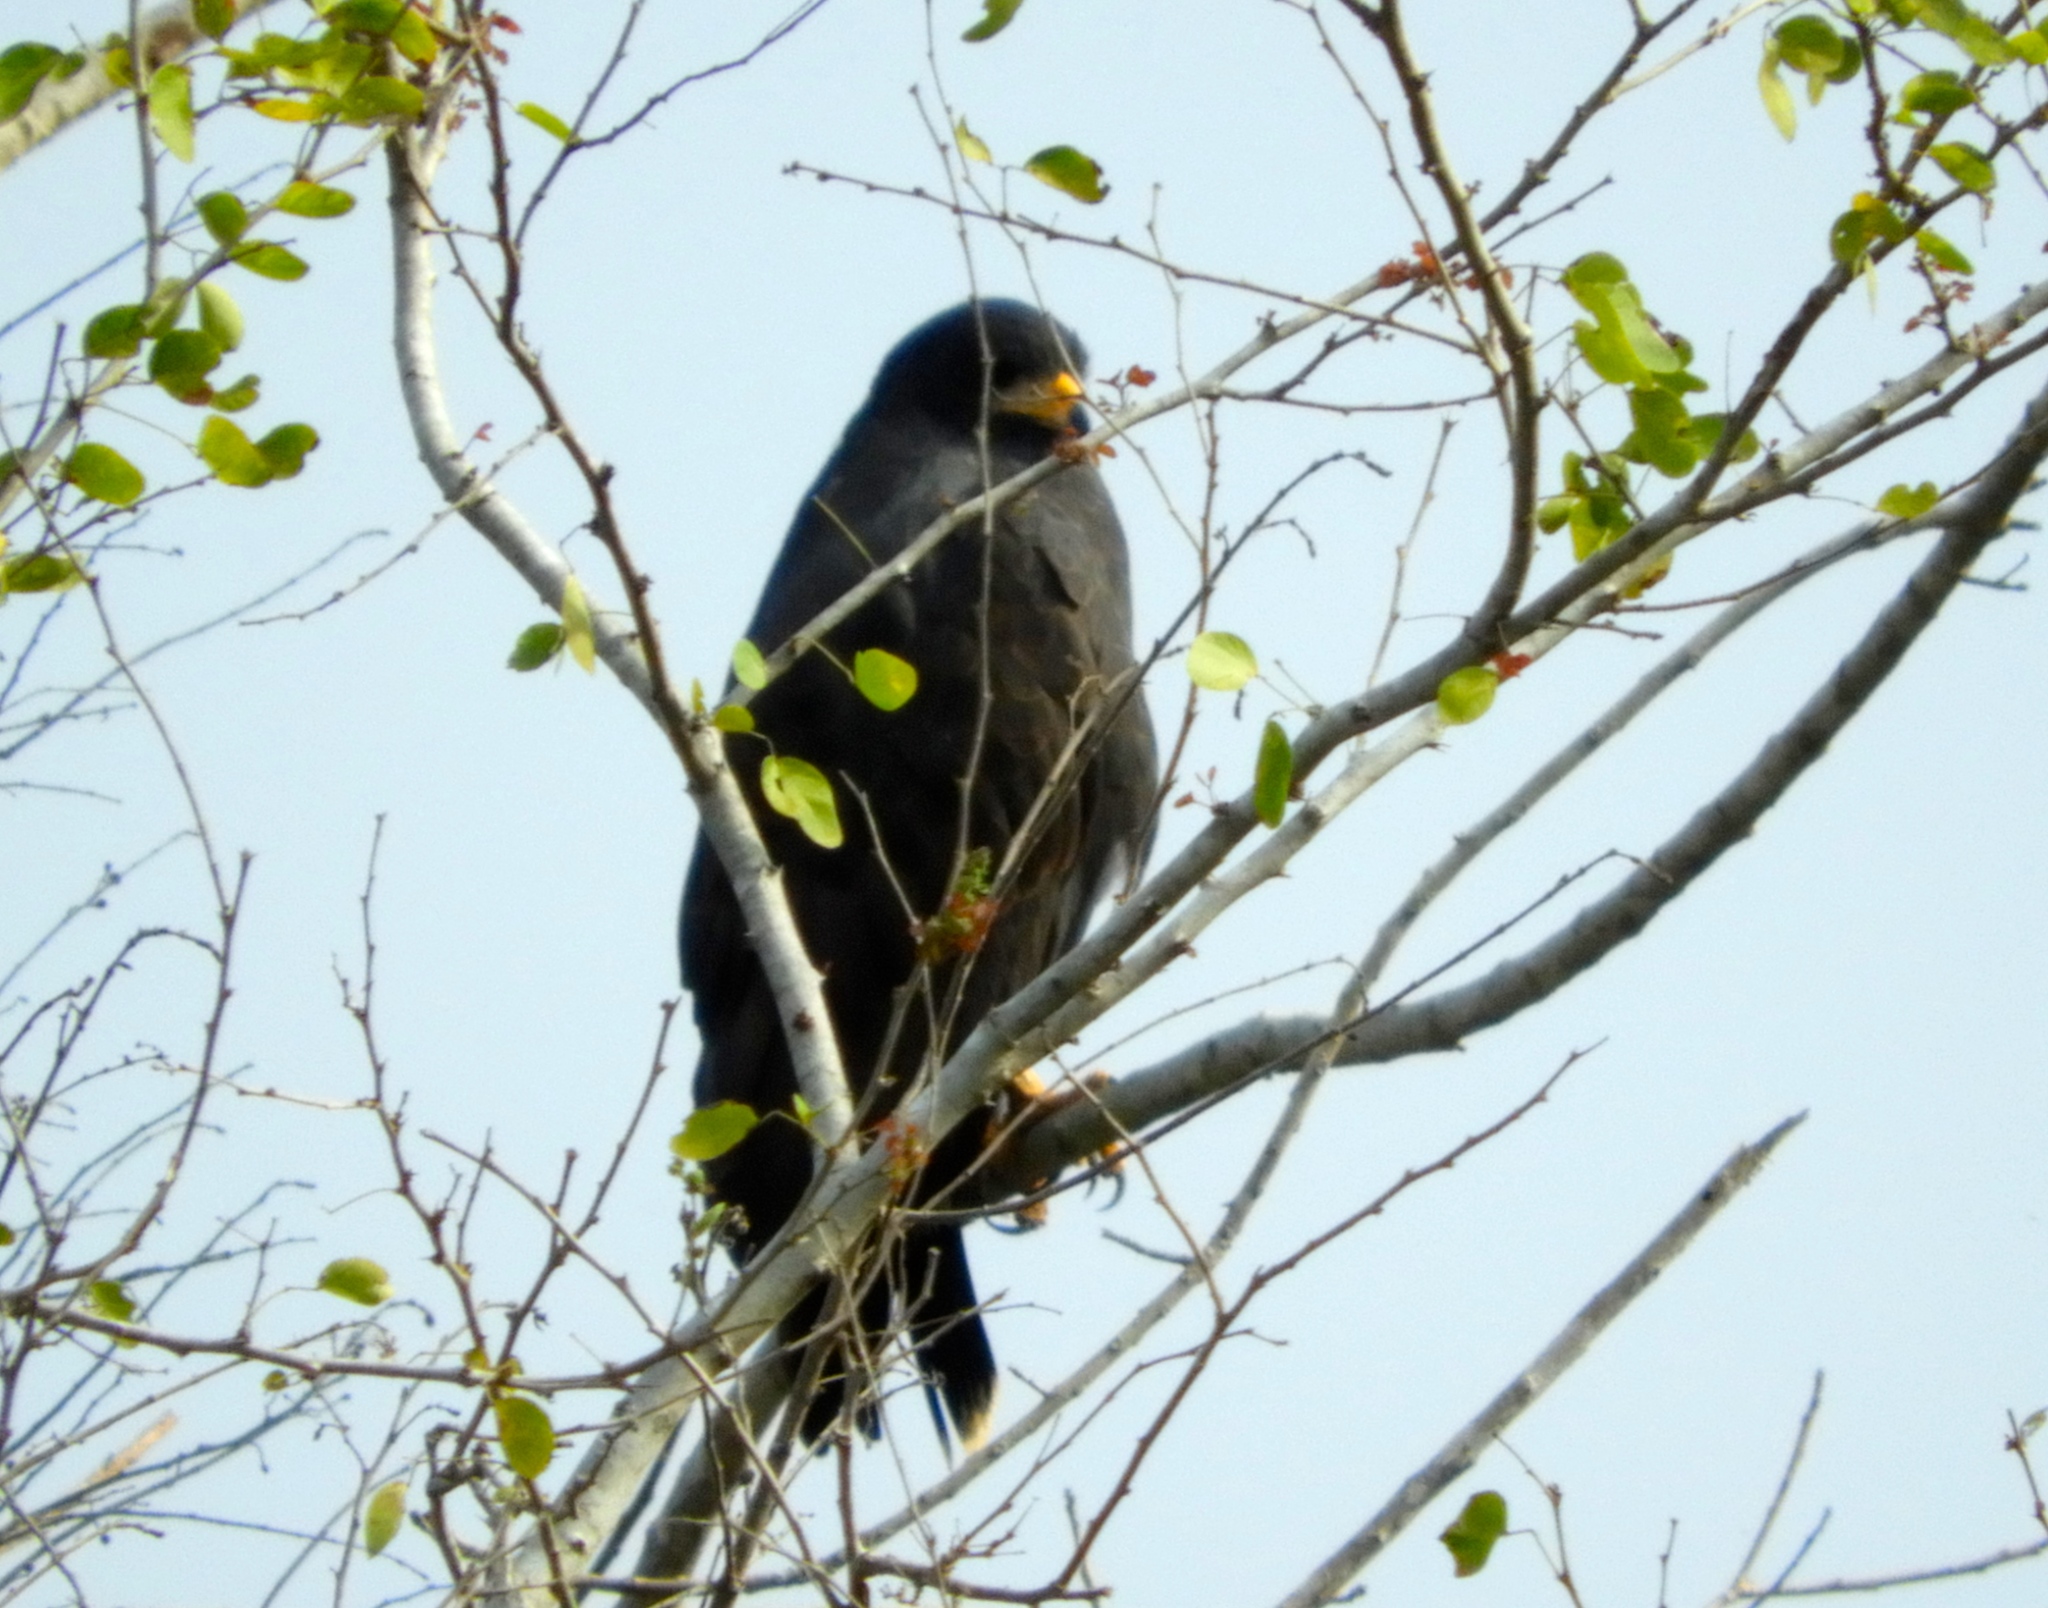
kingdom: Animalia
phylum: Chordata
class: Aves
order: Accipitriformes
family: Accipitridae
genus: Buteogallus
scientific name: Buteogallus anthracinus
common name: Common black hawk
